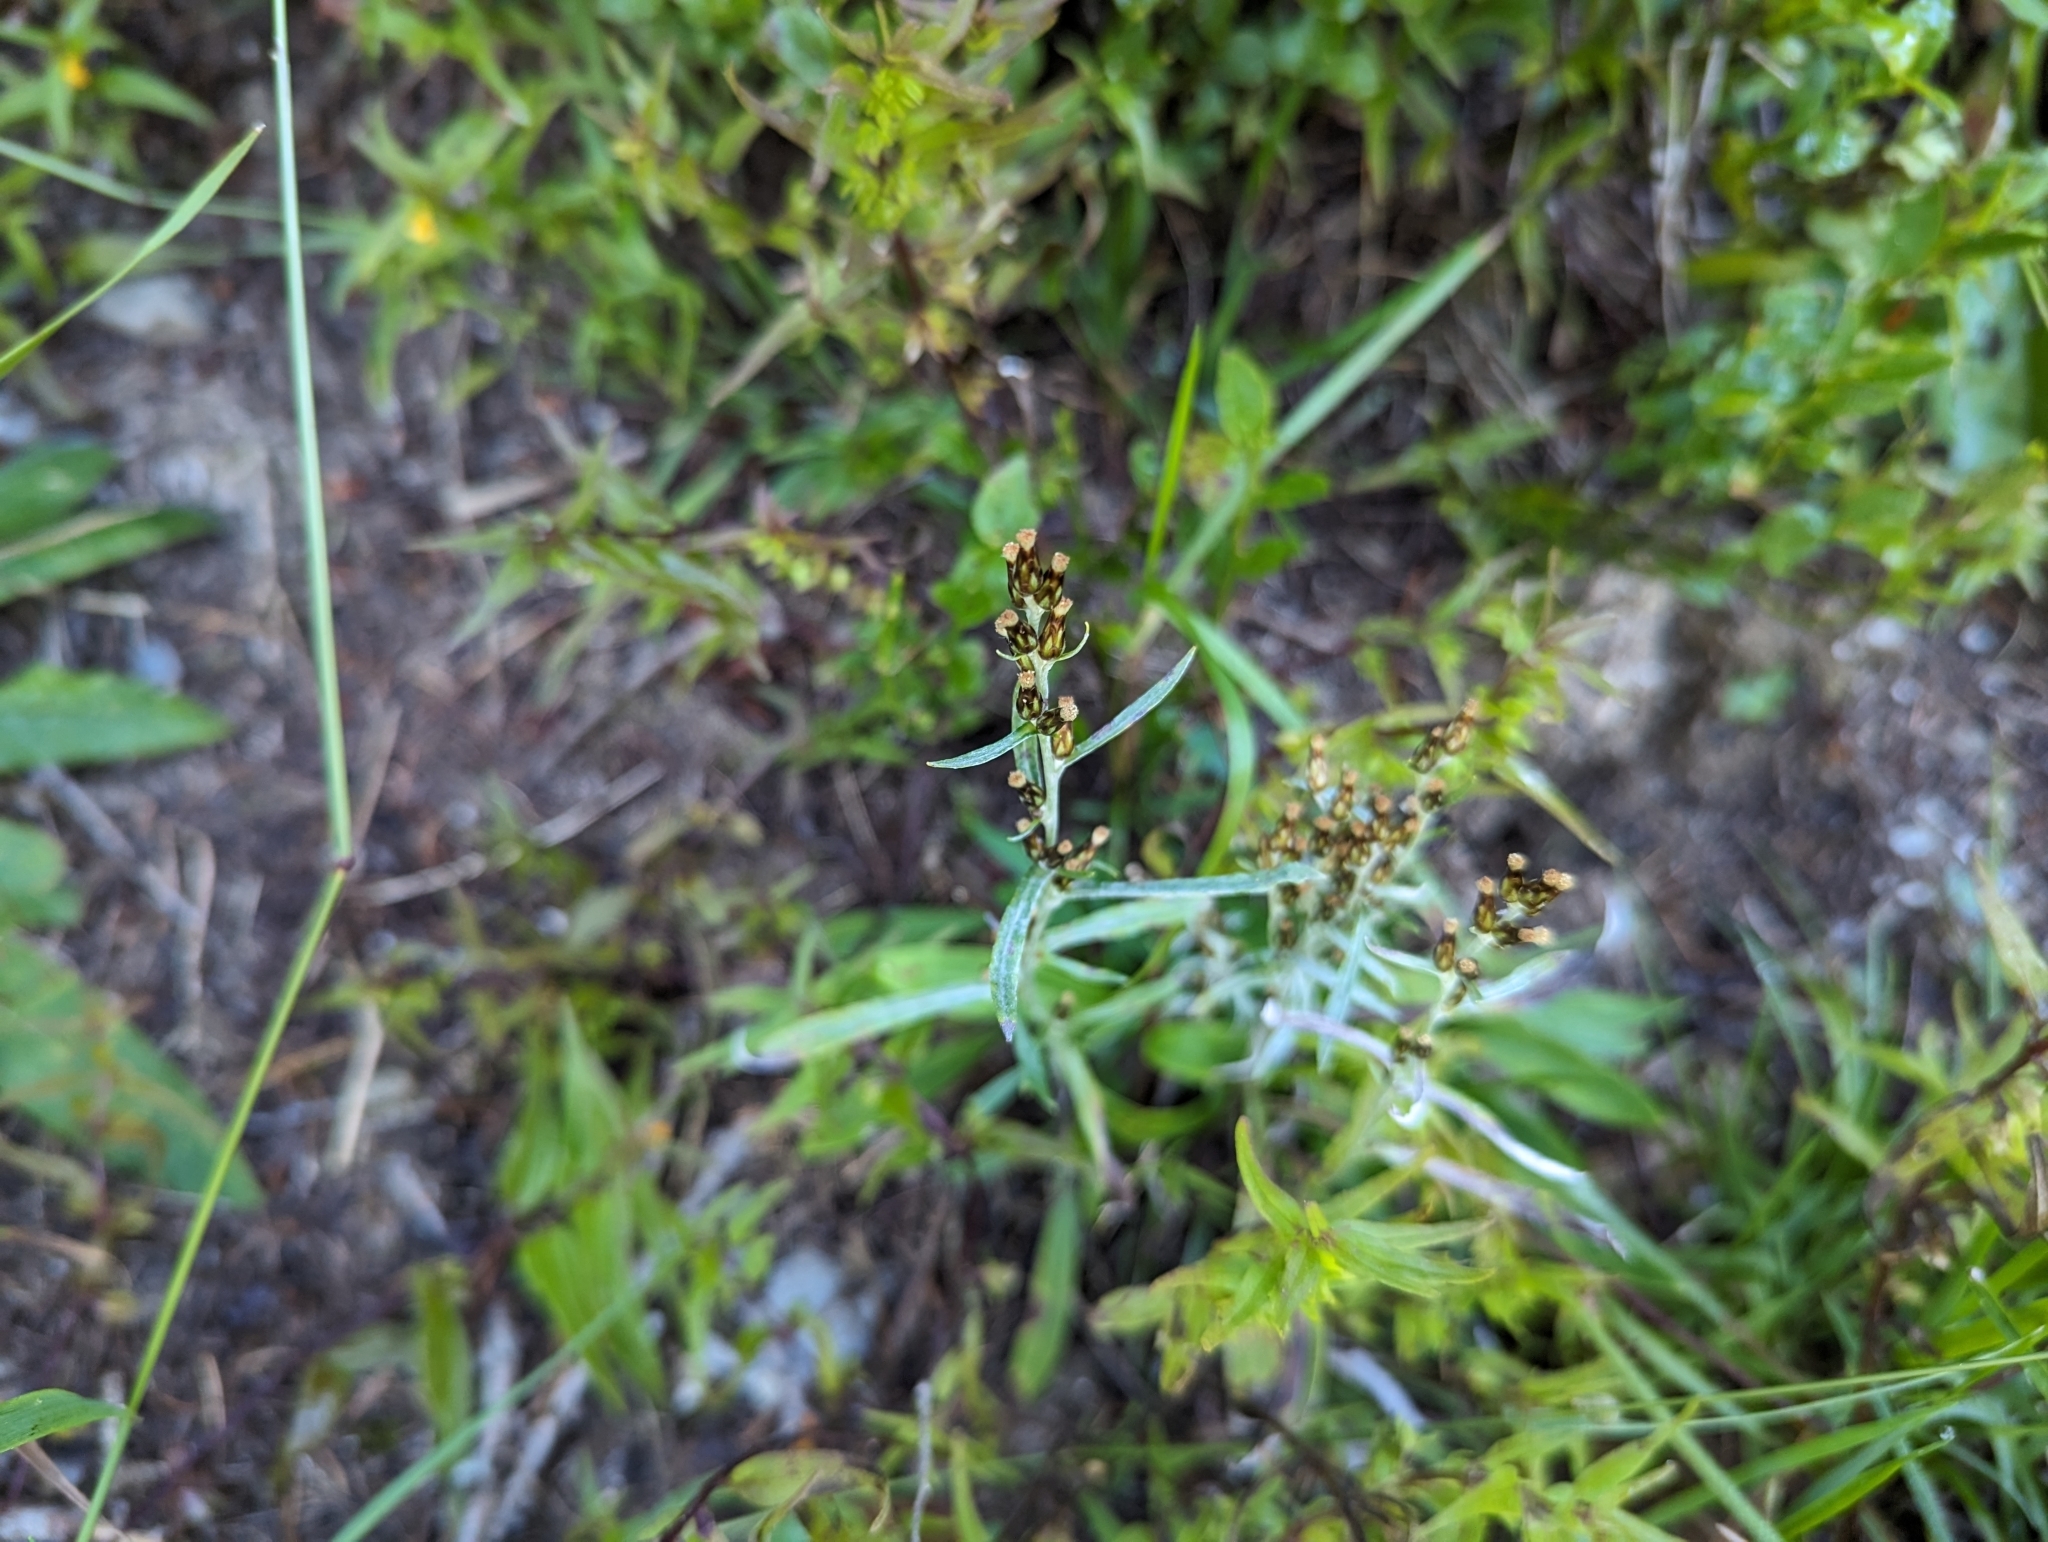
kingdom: Plantae
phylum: Tracheophyta
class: Magnoliopsida
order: Asterales
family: Asteraceae
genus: Omalotheca
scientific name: Omalotheca sylvatica
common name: Heath cudweed
